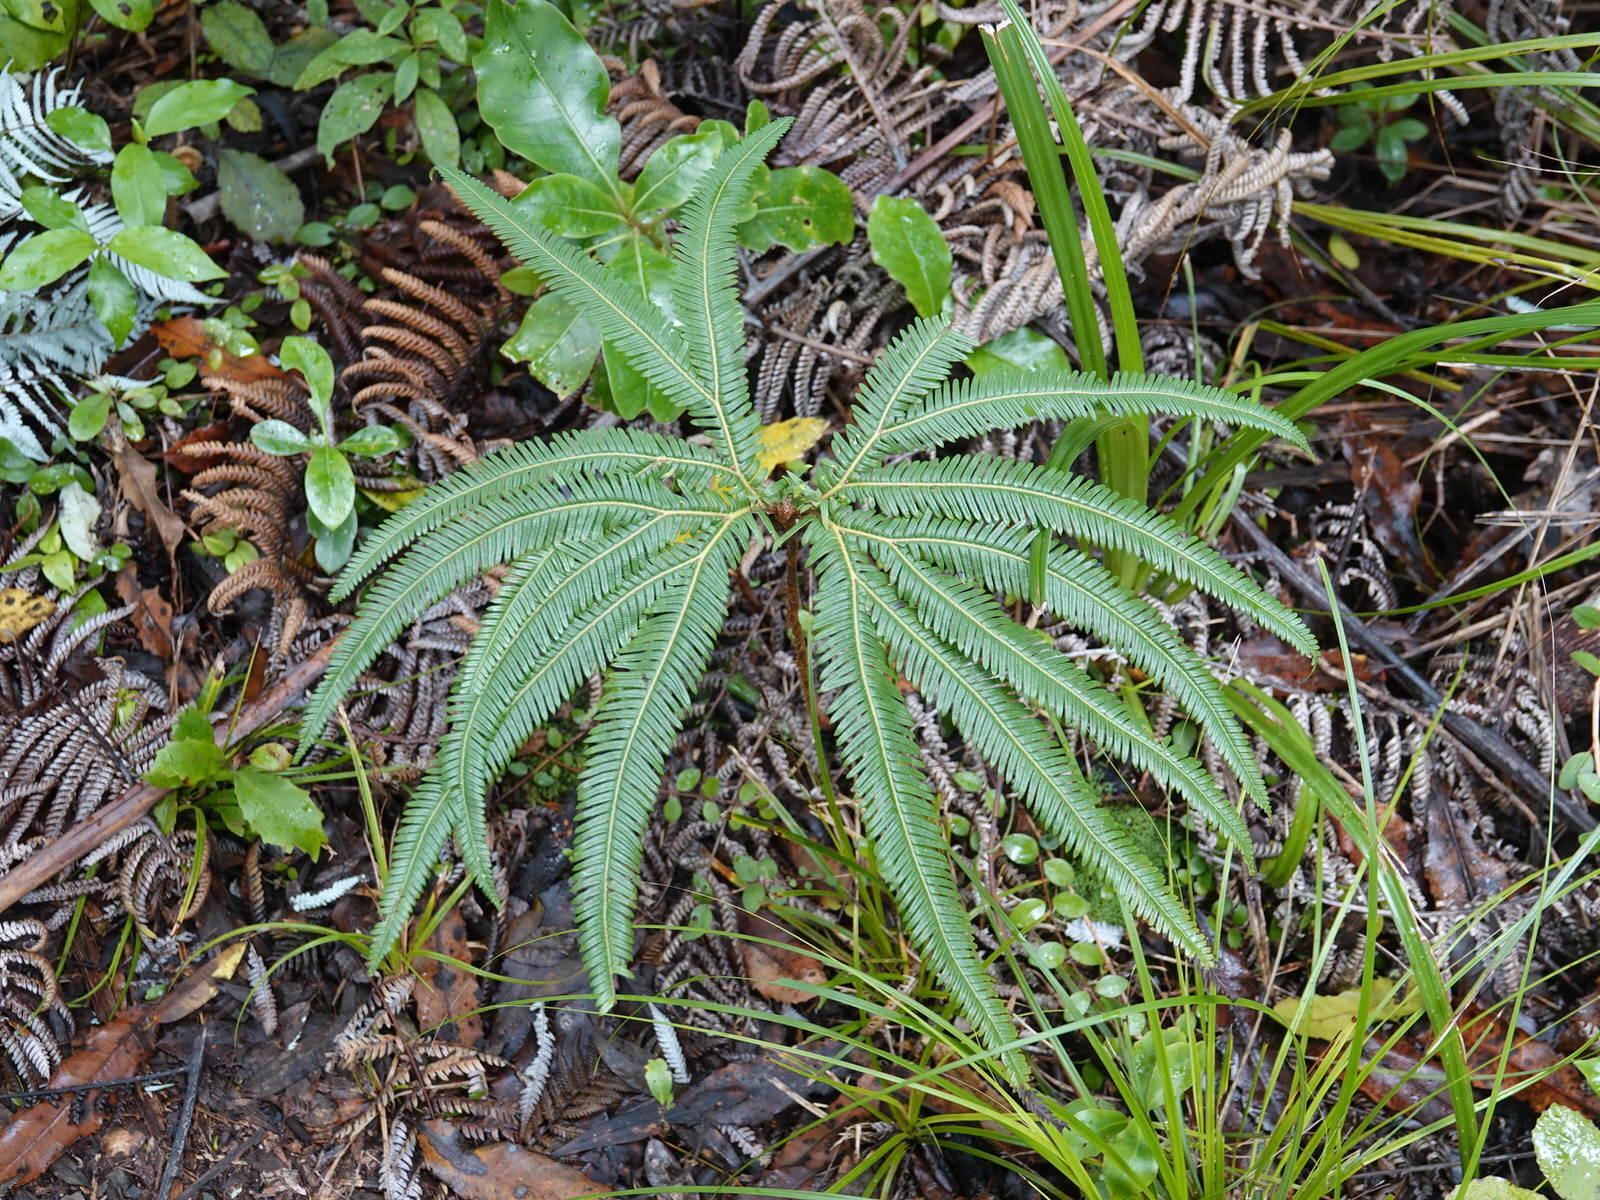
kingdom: Plantae
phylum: Tracheophyta
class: Polypodiopsida
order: Gleicheniales
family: Gleicheniaceae
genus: Sticherus
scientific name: Sticherus cunninghamii
